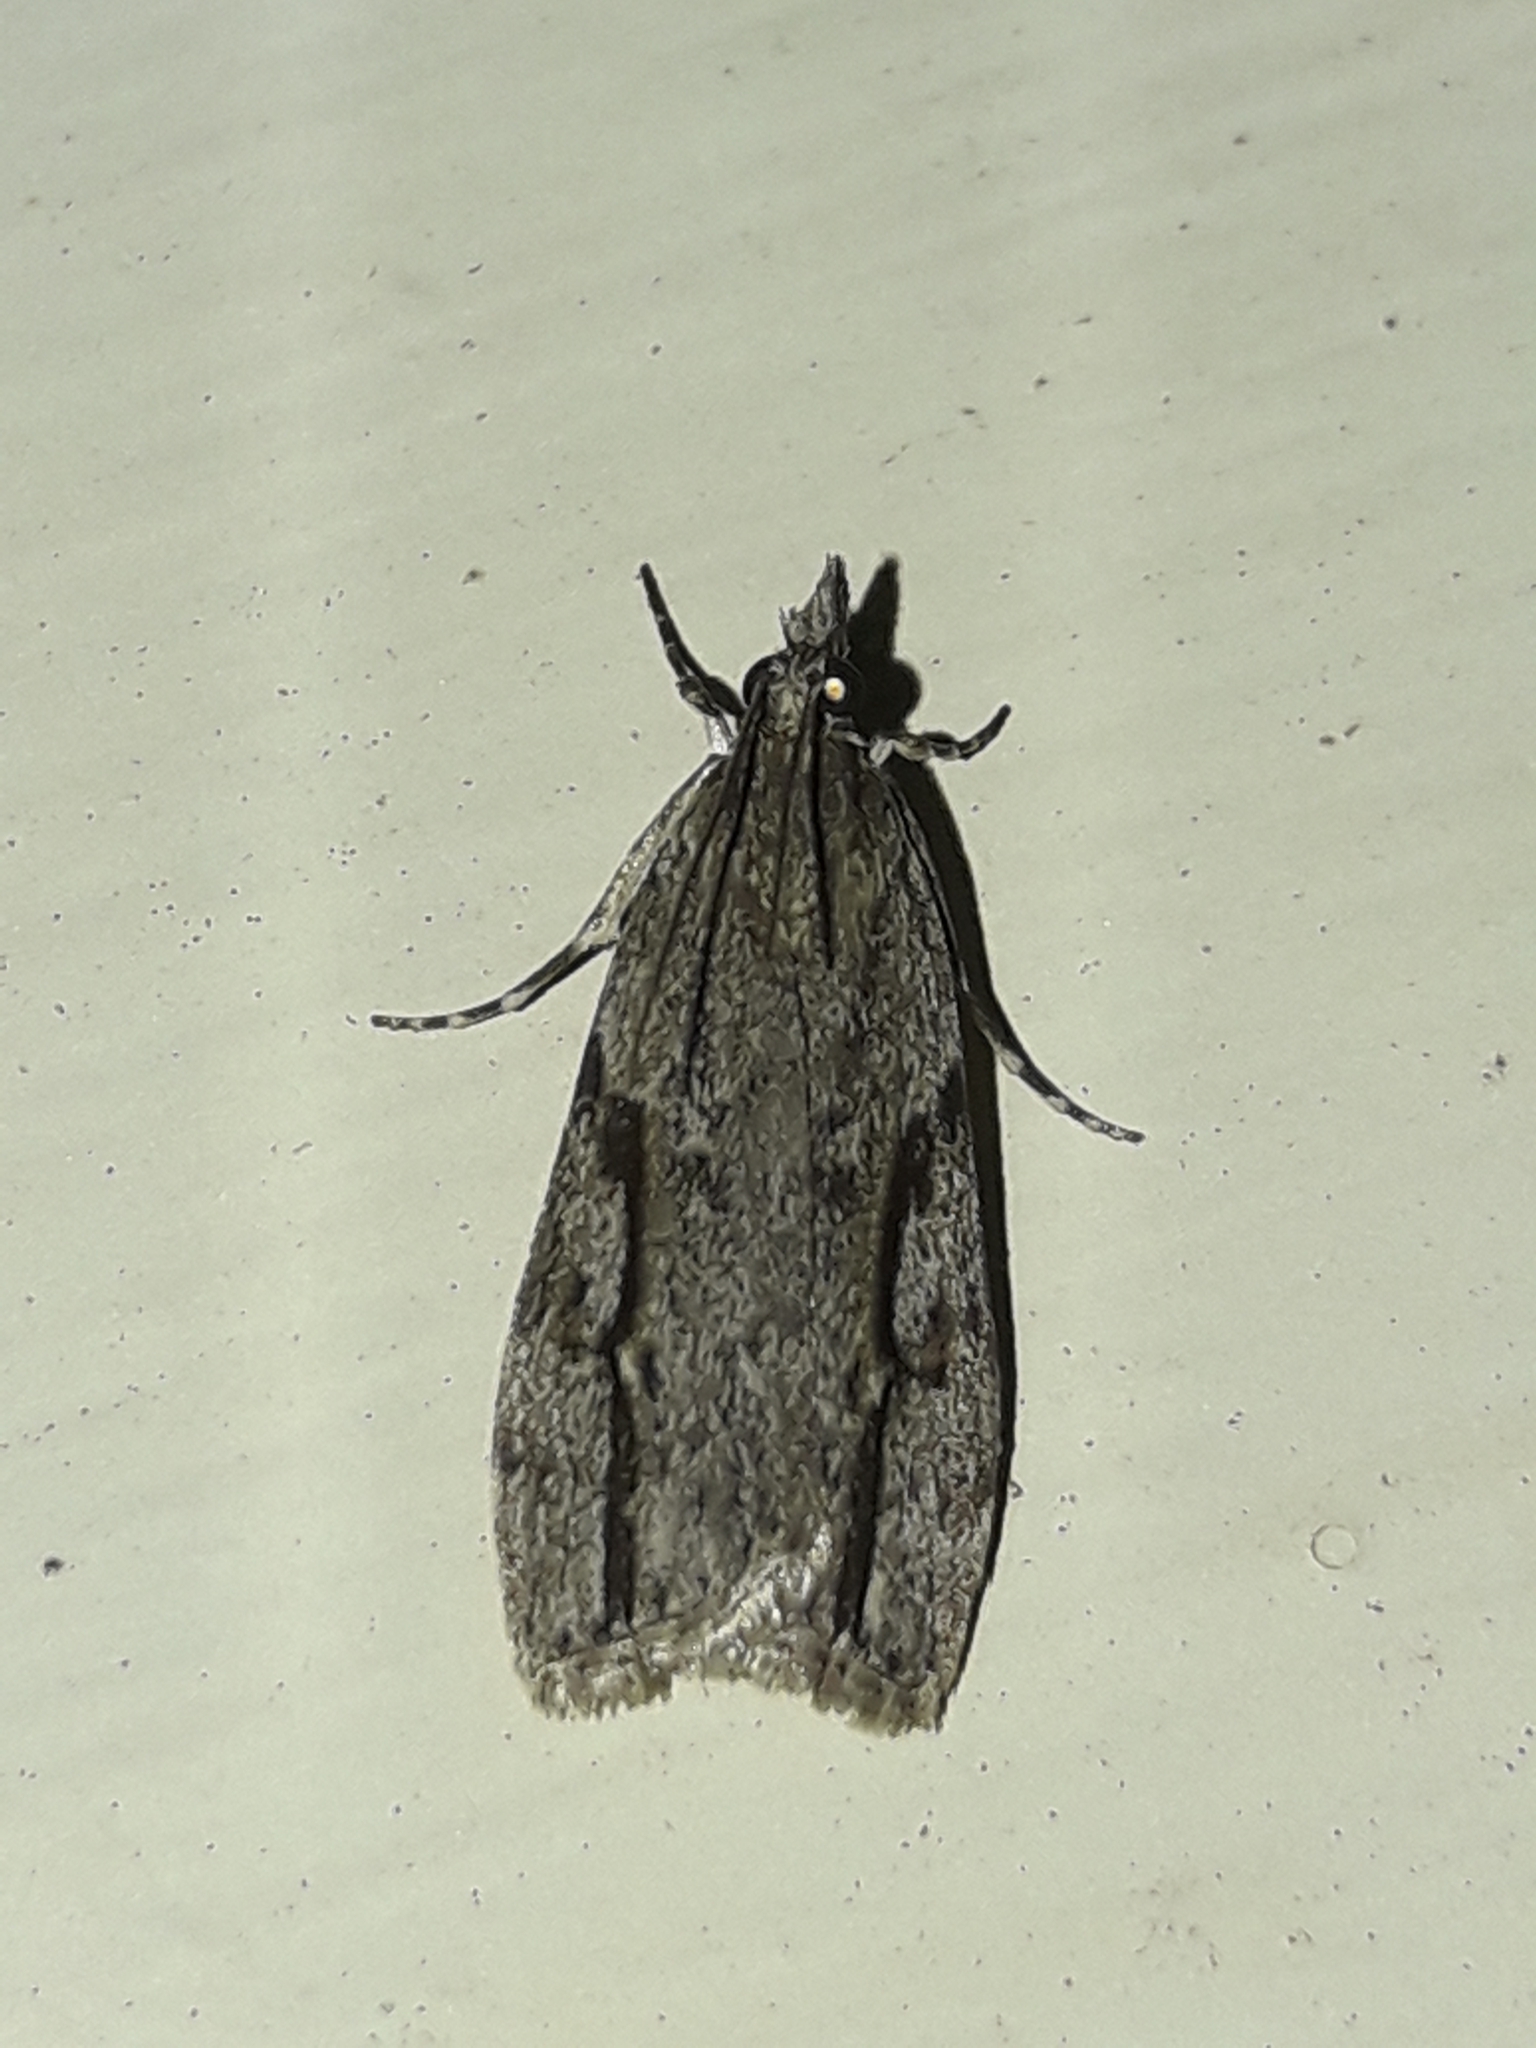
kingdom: Animalia
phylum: Arthropoda
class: Insecta
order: Lepidoptera
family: Crambidae
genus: Eudonia
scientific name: Eudonia bisinualis
